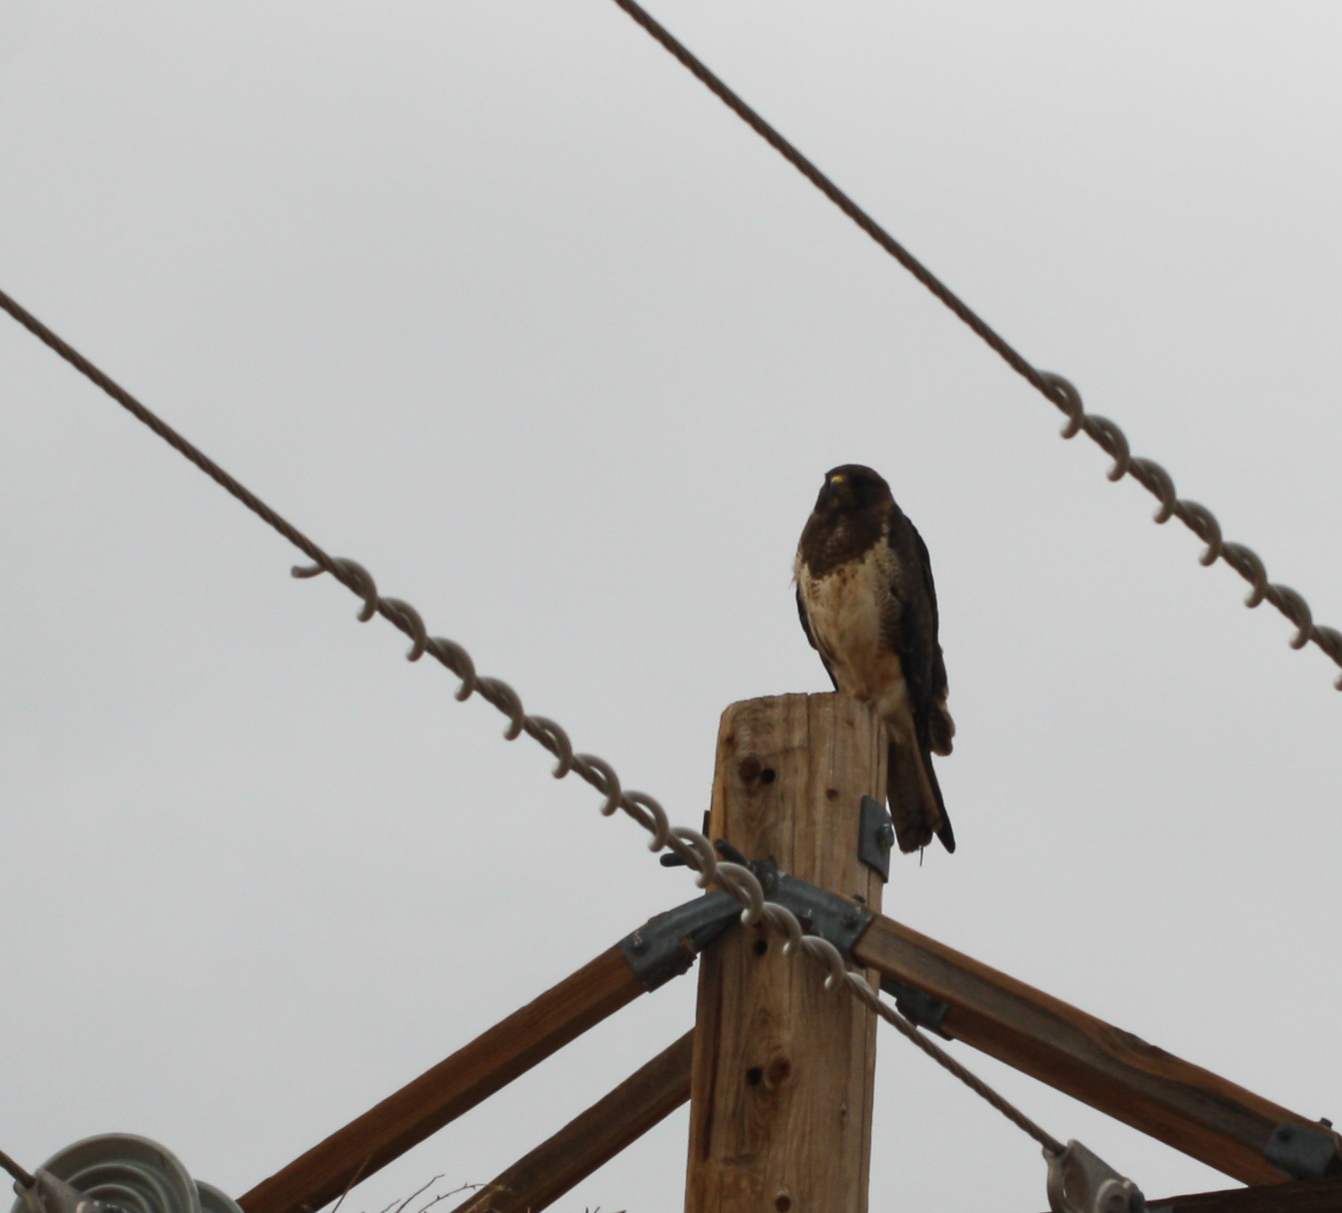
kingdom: Animalia
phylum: Chordata
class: Aves
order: Accipitriformes
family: Accipitridae
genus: Buteo
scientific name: Buteo swainsoni
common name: Swainson's hawk
